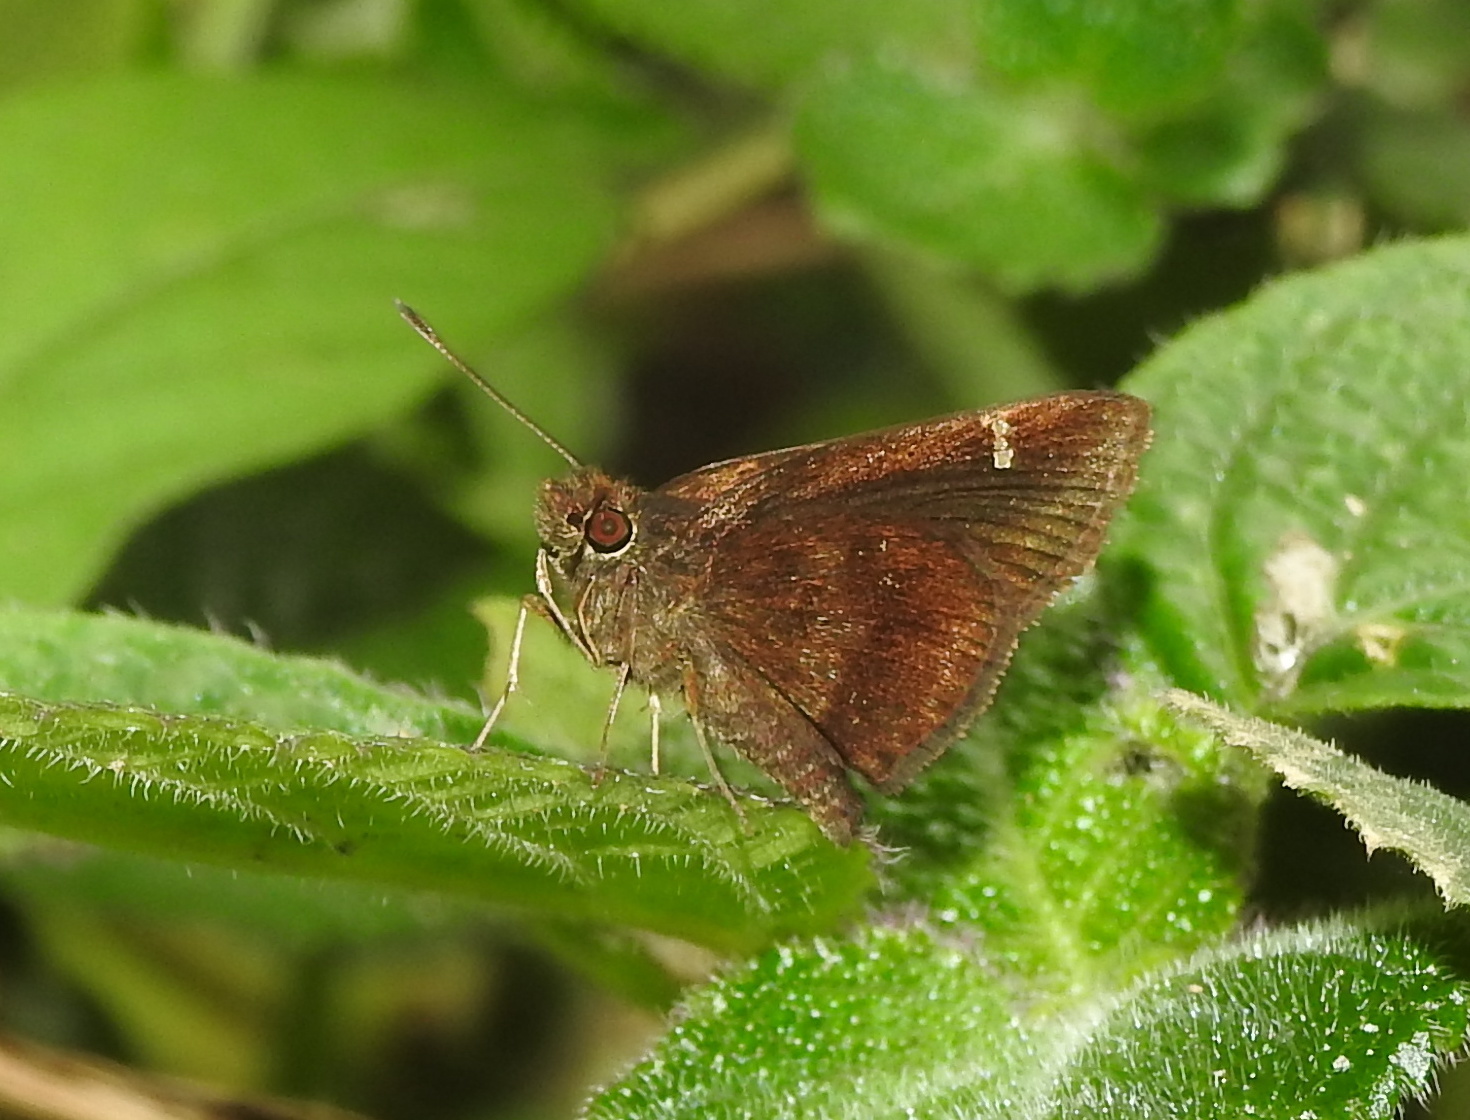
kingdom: Animalia
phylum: Arthropoda
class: Insecta
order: Lepidoptera
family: Hesperiidae
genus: Arnetta
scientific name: Arnetta mercara
